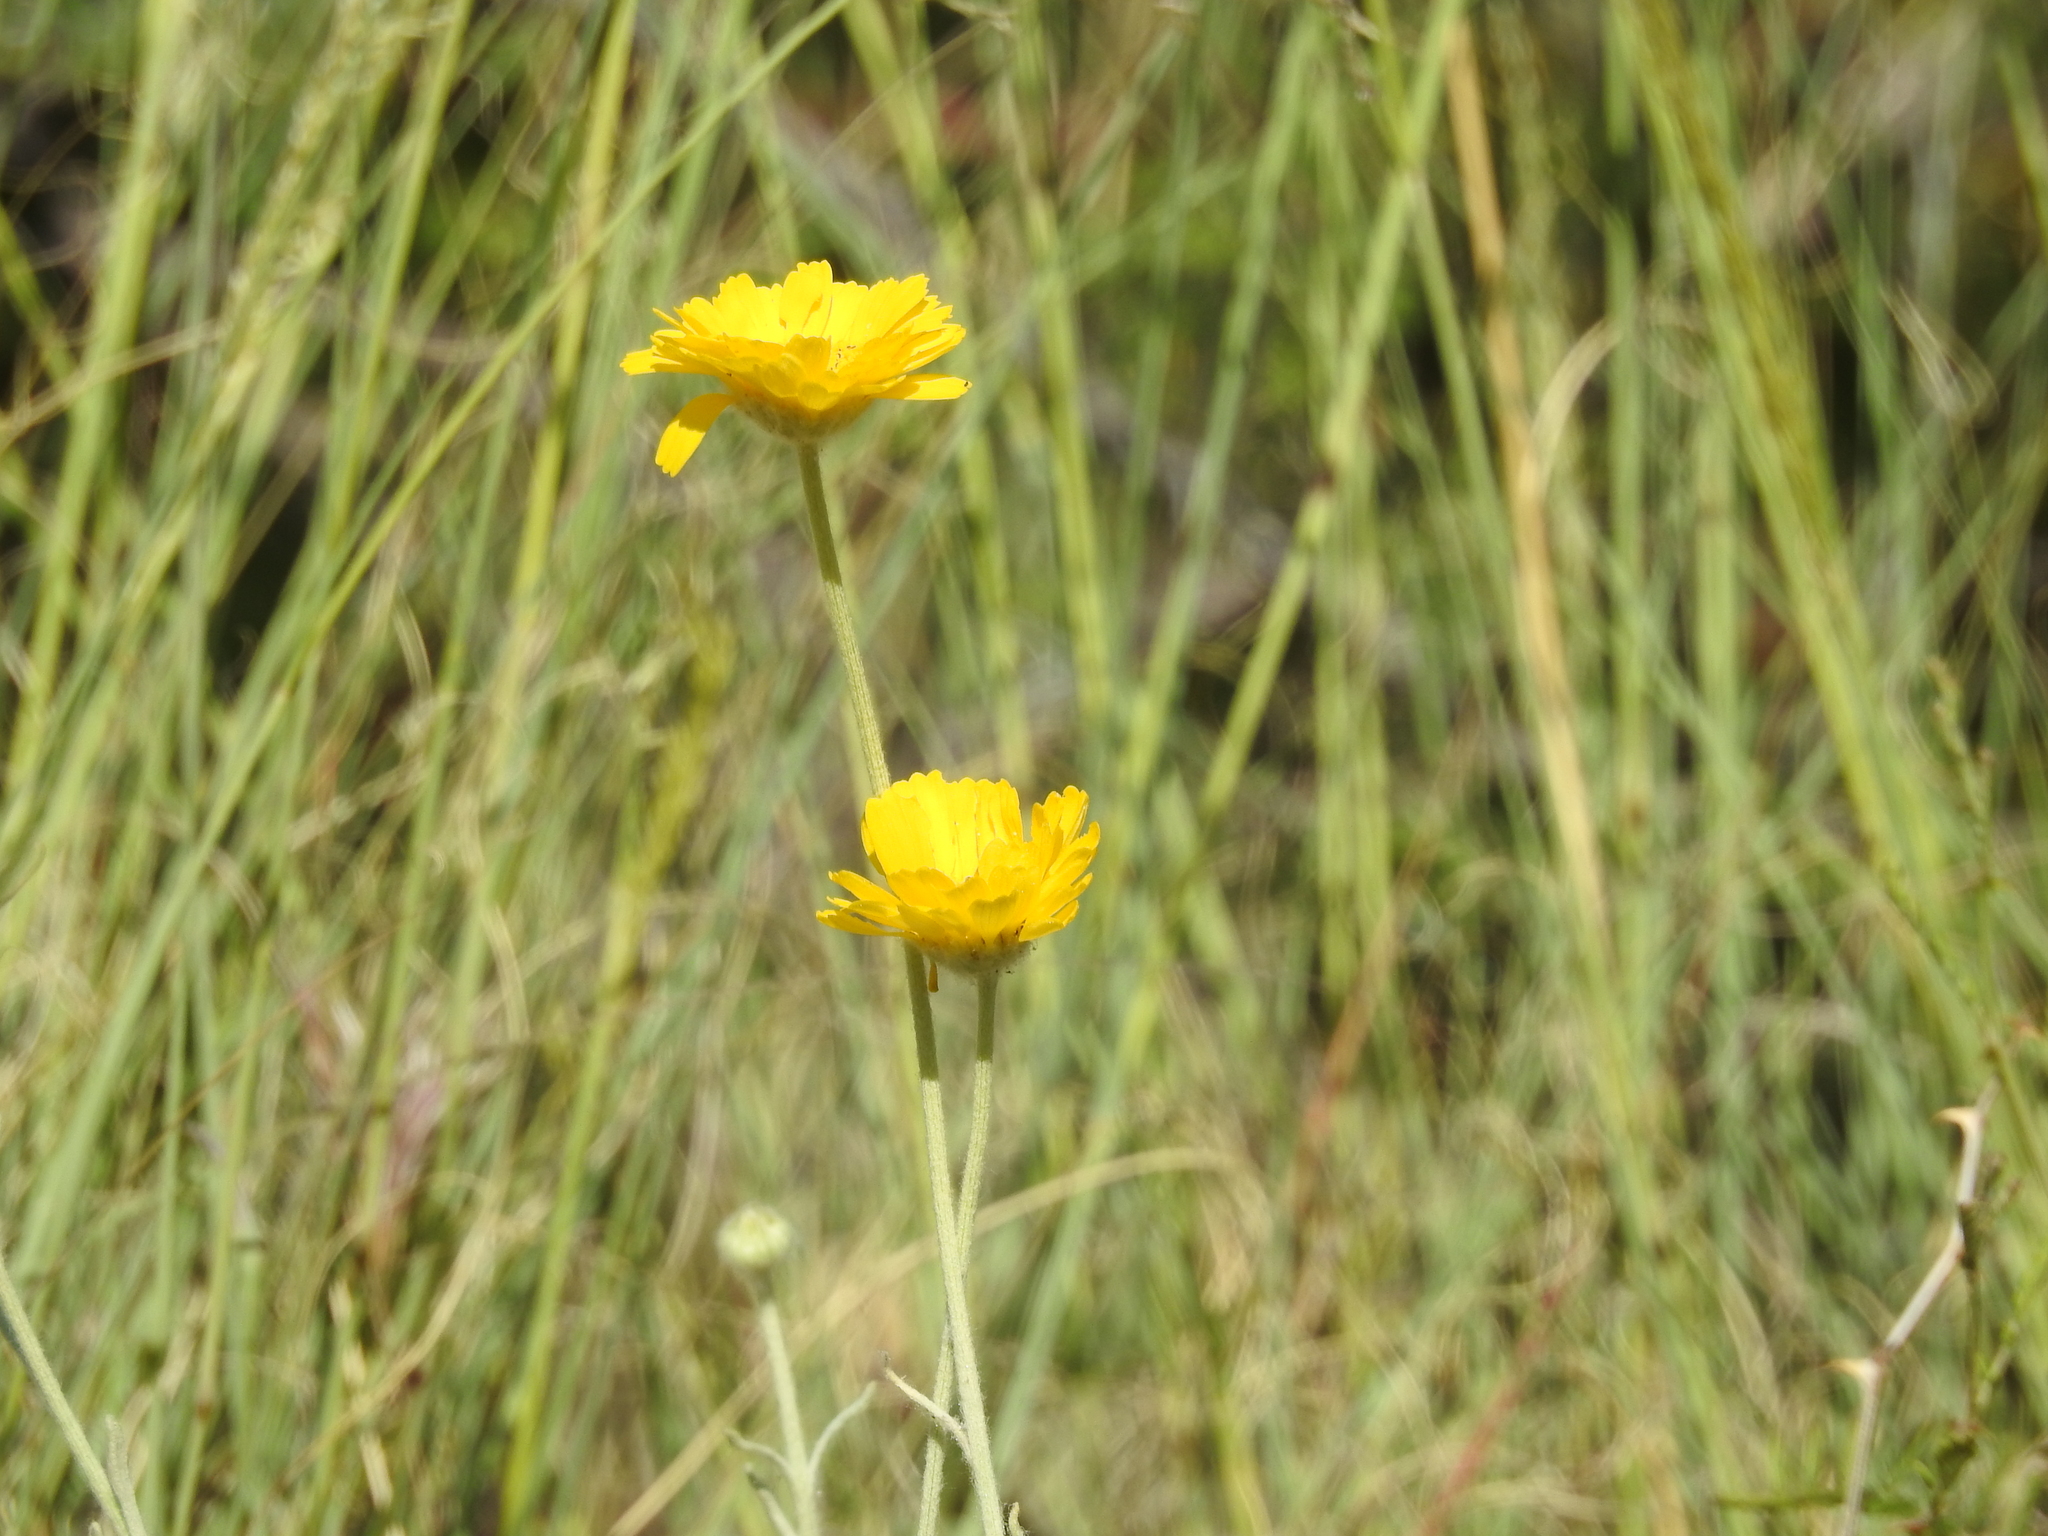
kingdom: Plantae
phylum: Tracheophyta
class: Magnoliopsida
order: Asterales
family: Asteraceae
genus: Baileya
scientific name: Baileya multiradiata
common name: Desert-marigold
